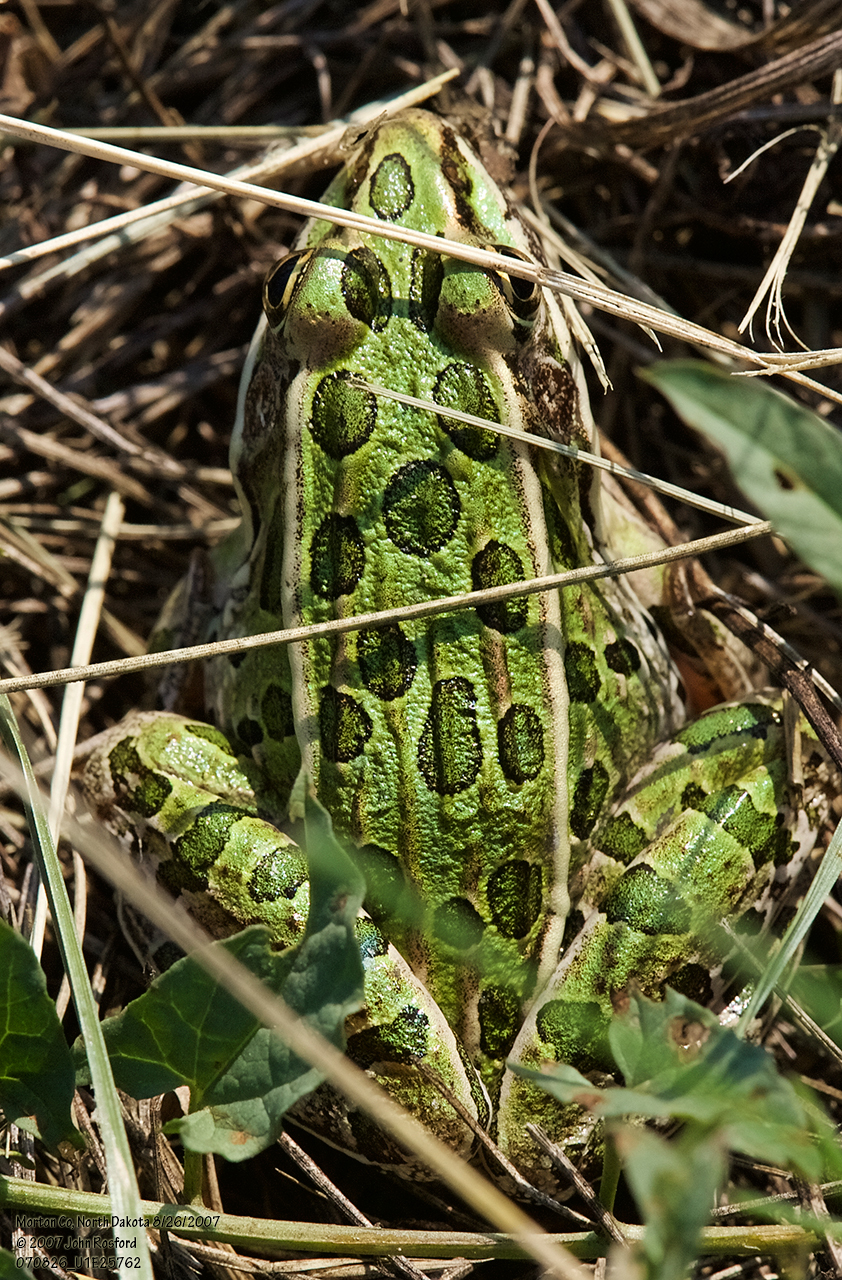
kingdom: Animalia
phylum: Chordata
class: Amphibia
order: Anura
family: Ranidae
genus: Lithobates
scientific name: Lithobates pipiens
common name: Northern leopard frog
